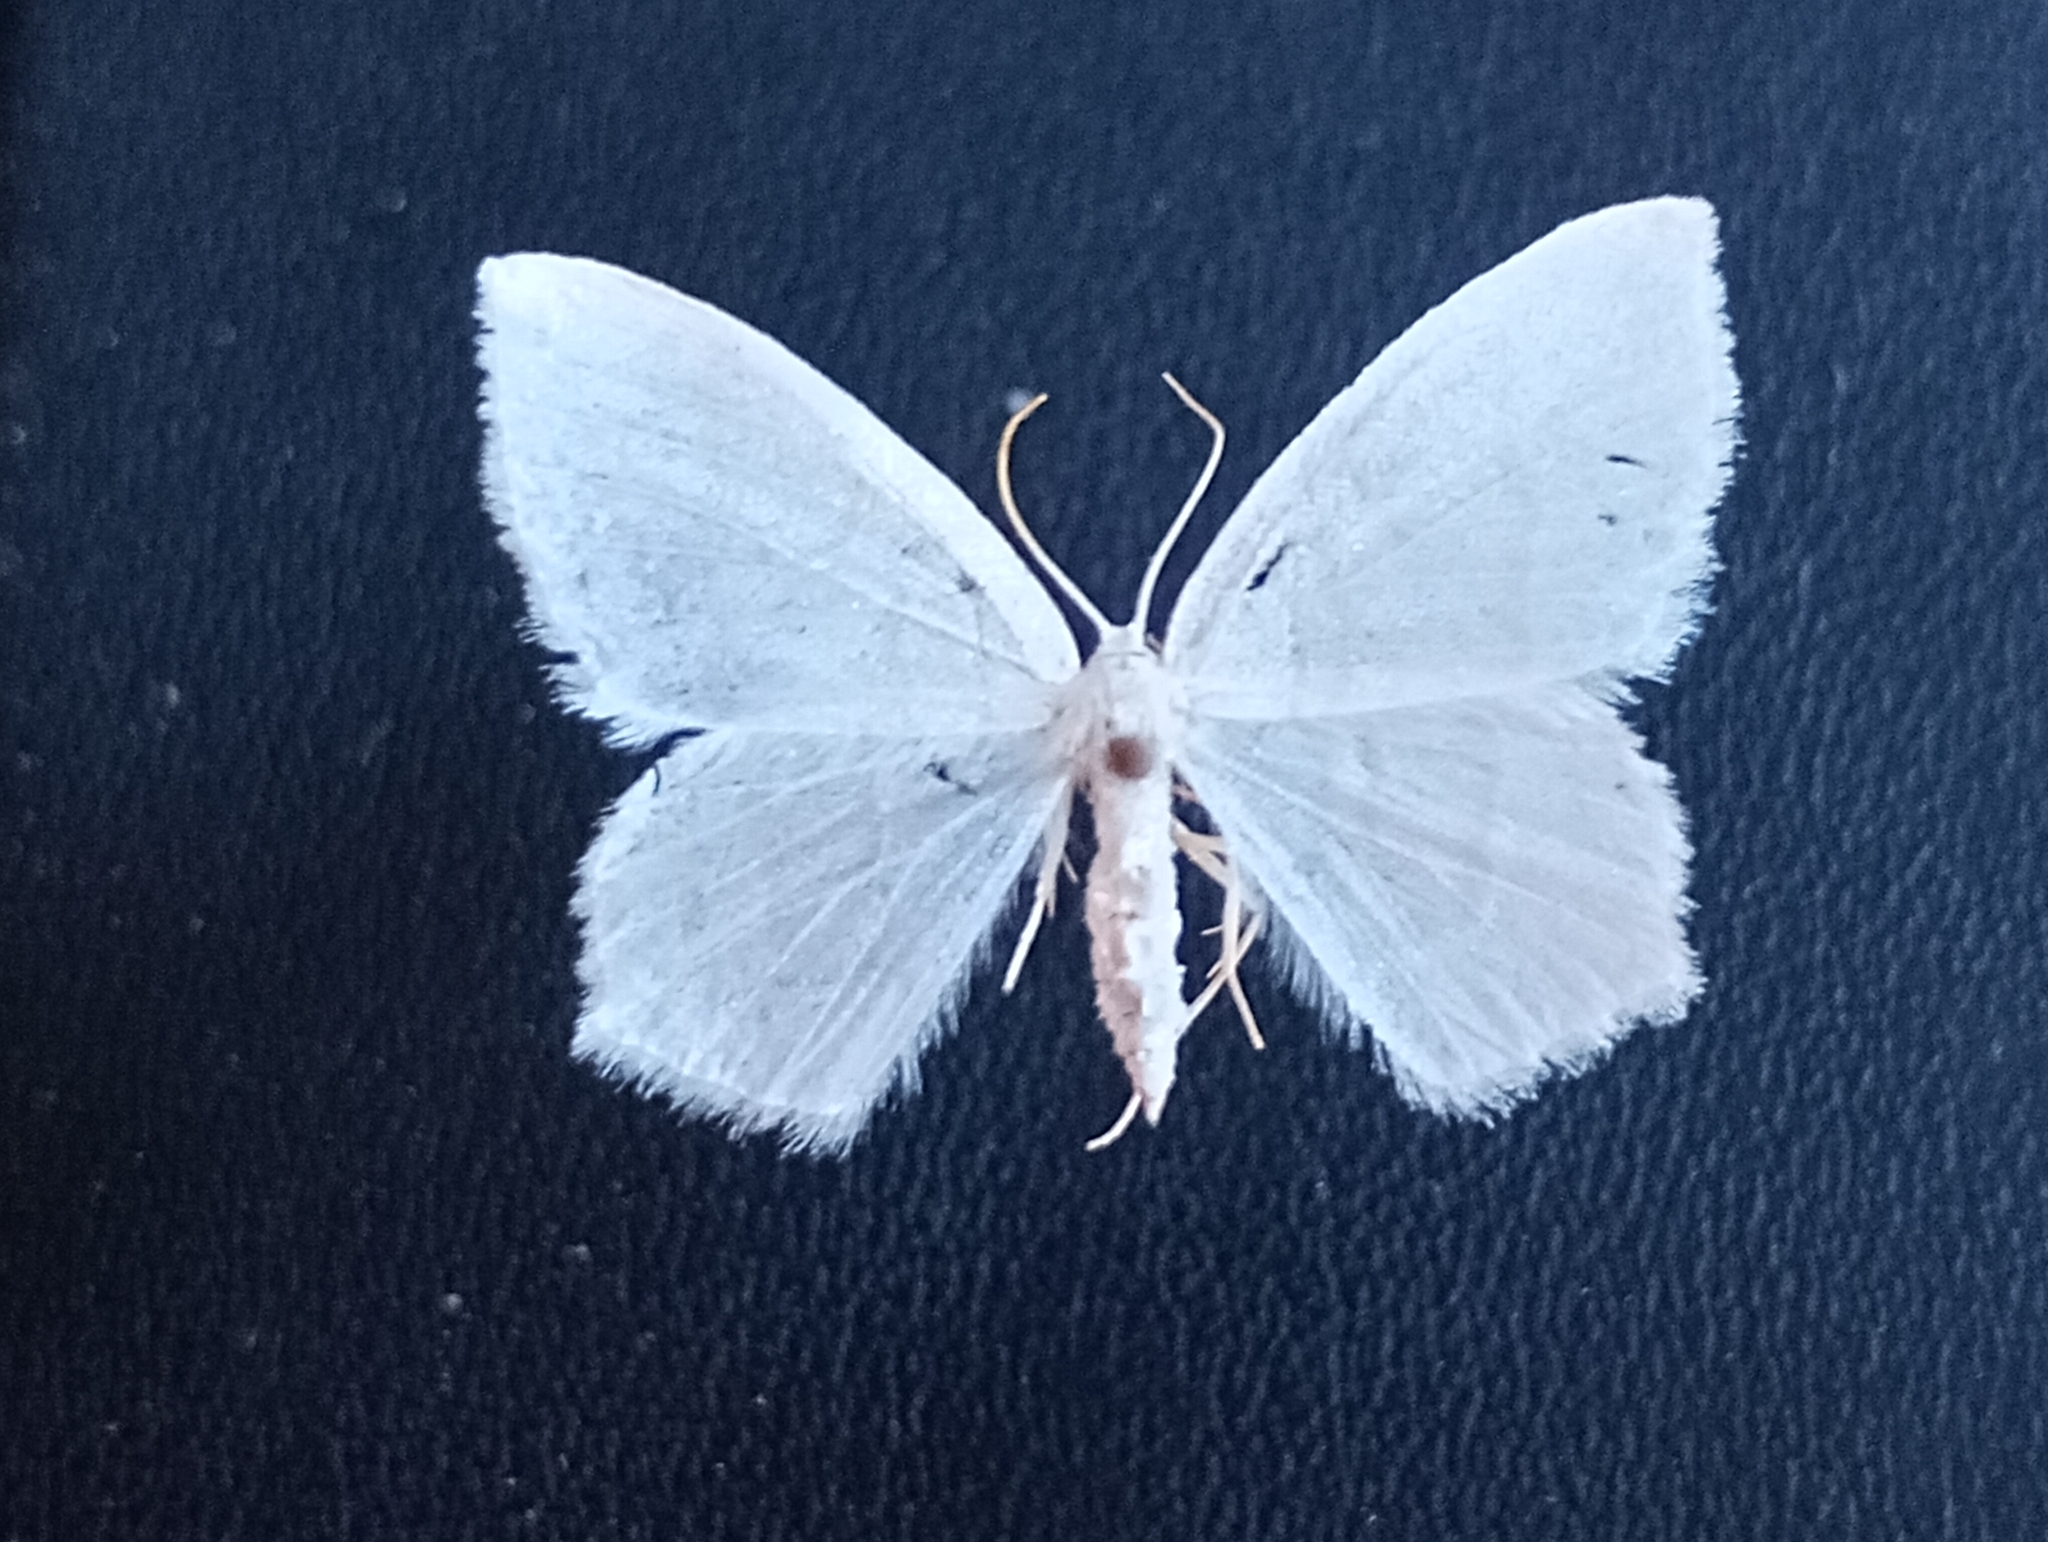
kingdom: Animalia
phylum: Arthropoda
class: Insecta
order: Lepidoptera
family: Geometridae
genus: Jodis
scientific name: Jodis lactearia
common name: Little emerald
